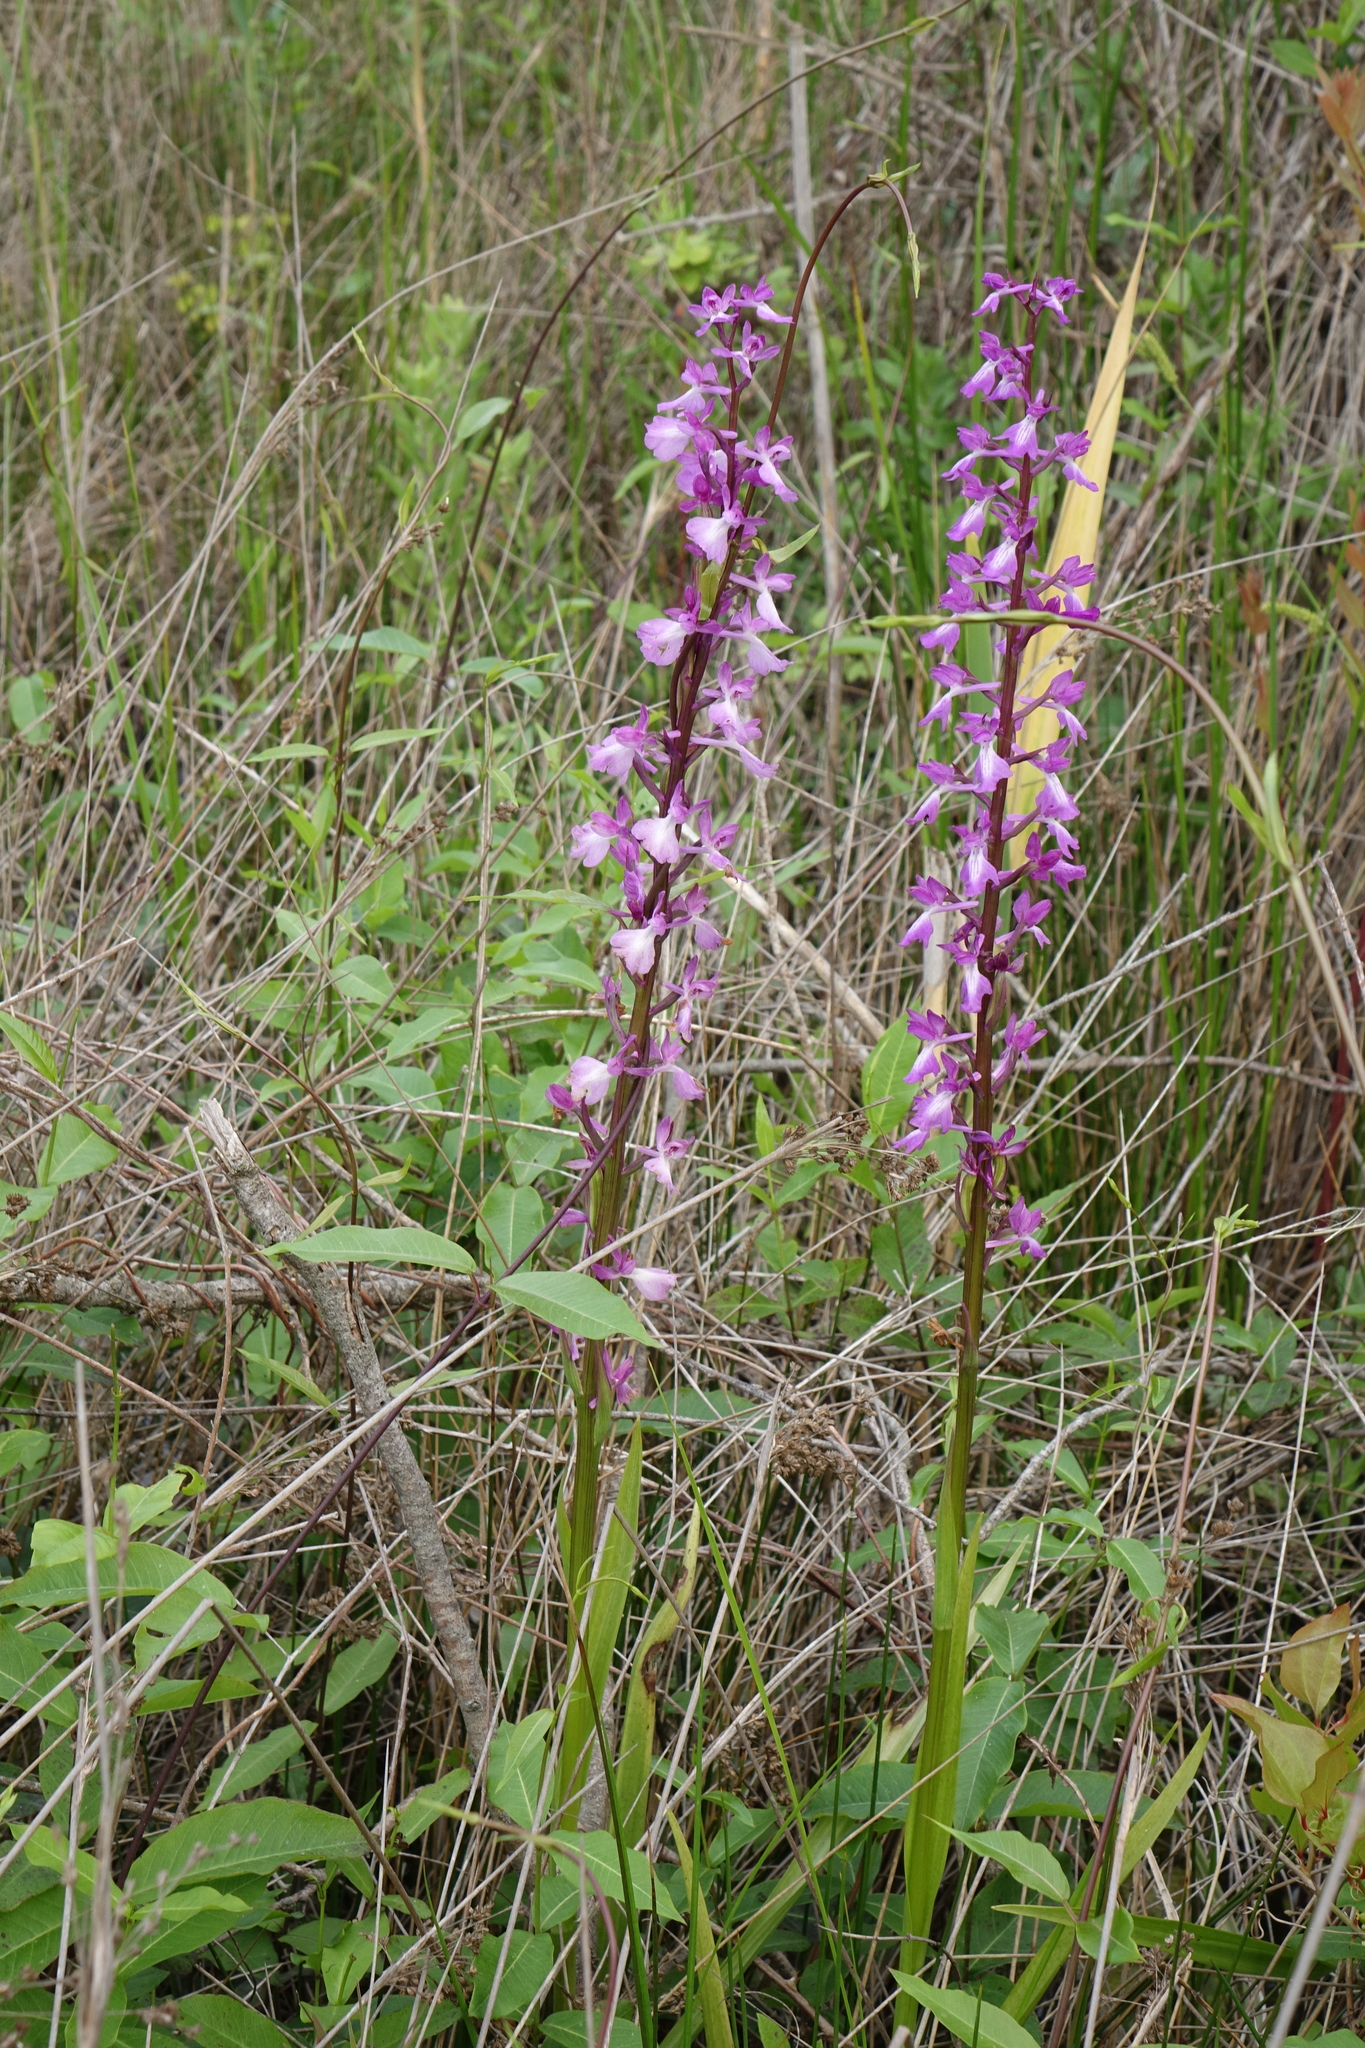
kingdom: Plantae
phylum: Tracheophyta
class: Liliopsida
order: Asparagales
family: Orchidaceae
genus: Anacamptis
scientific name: Anacamptis palustris
